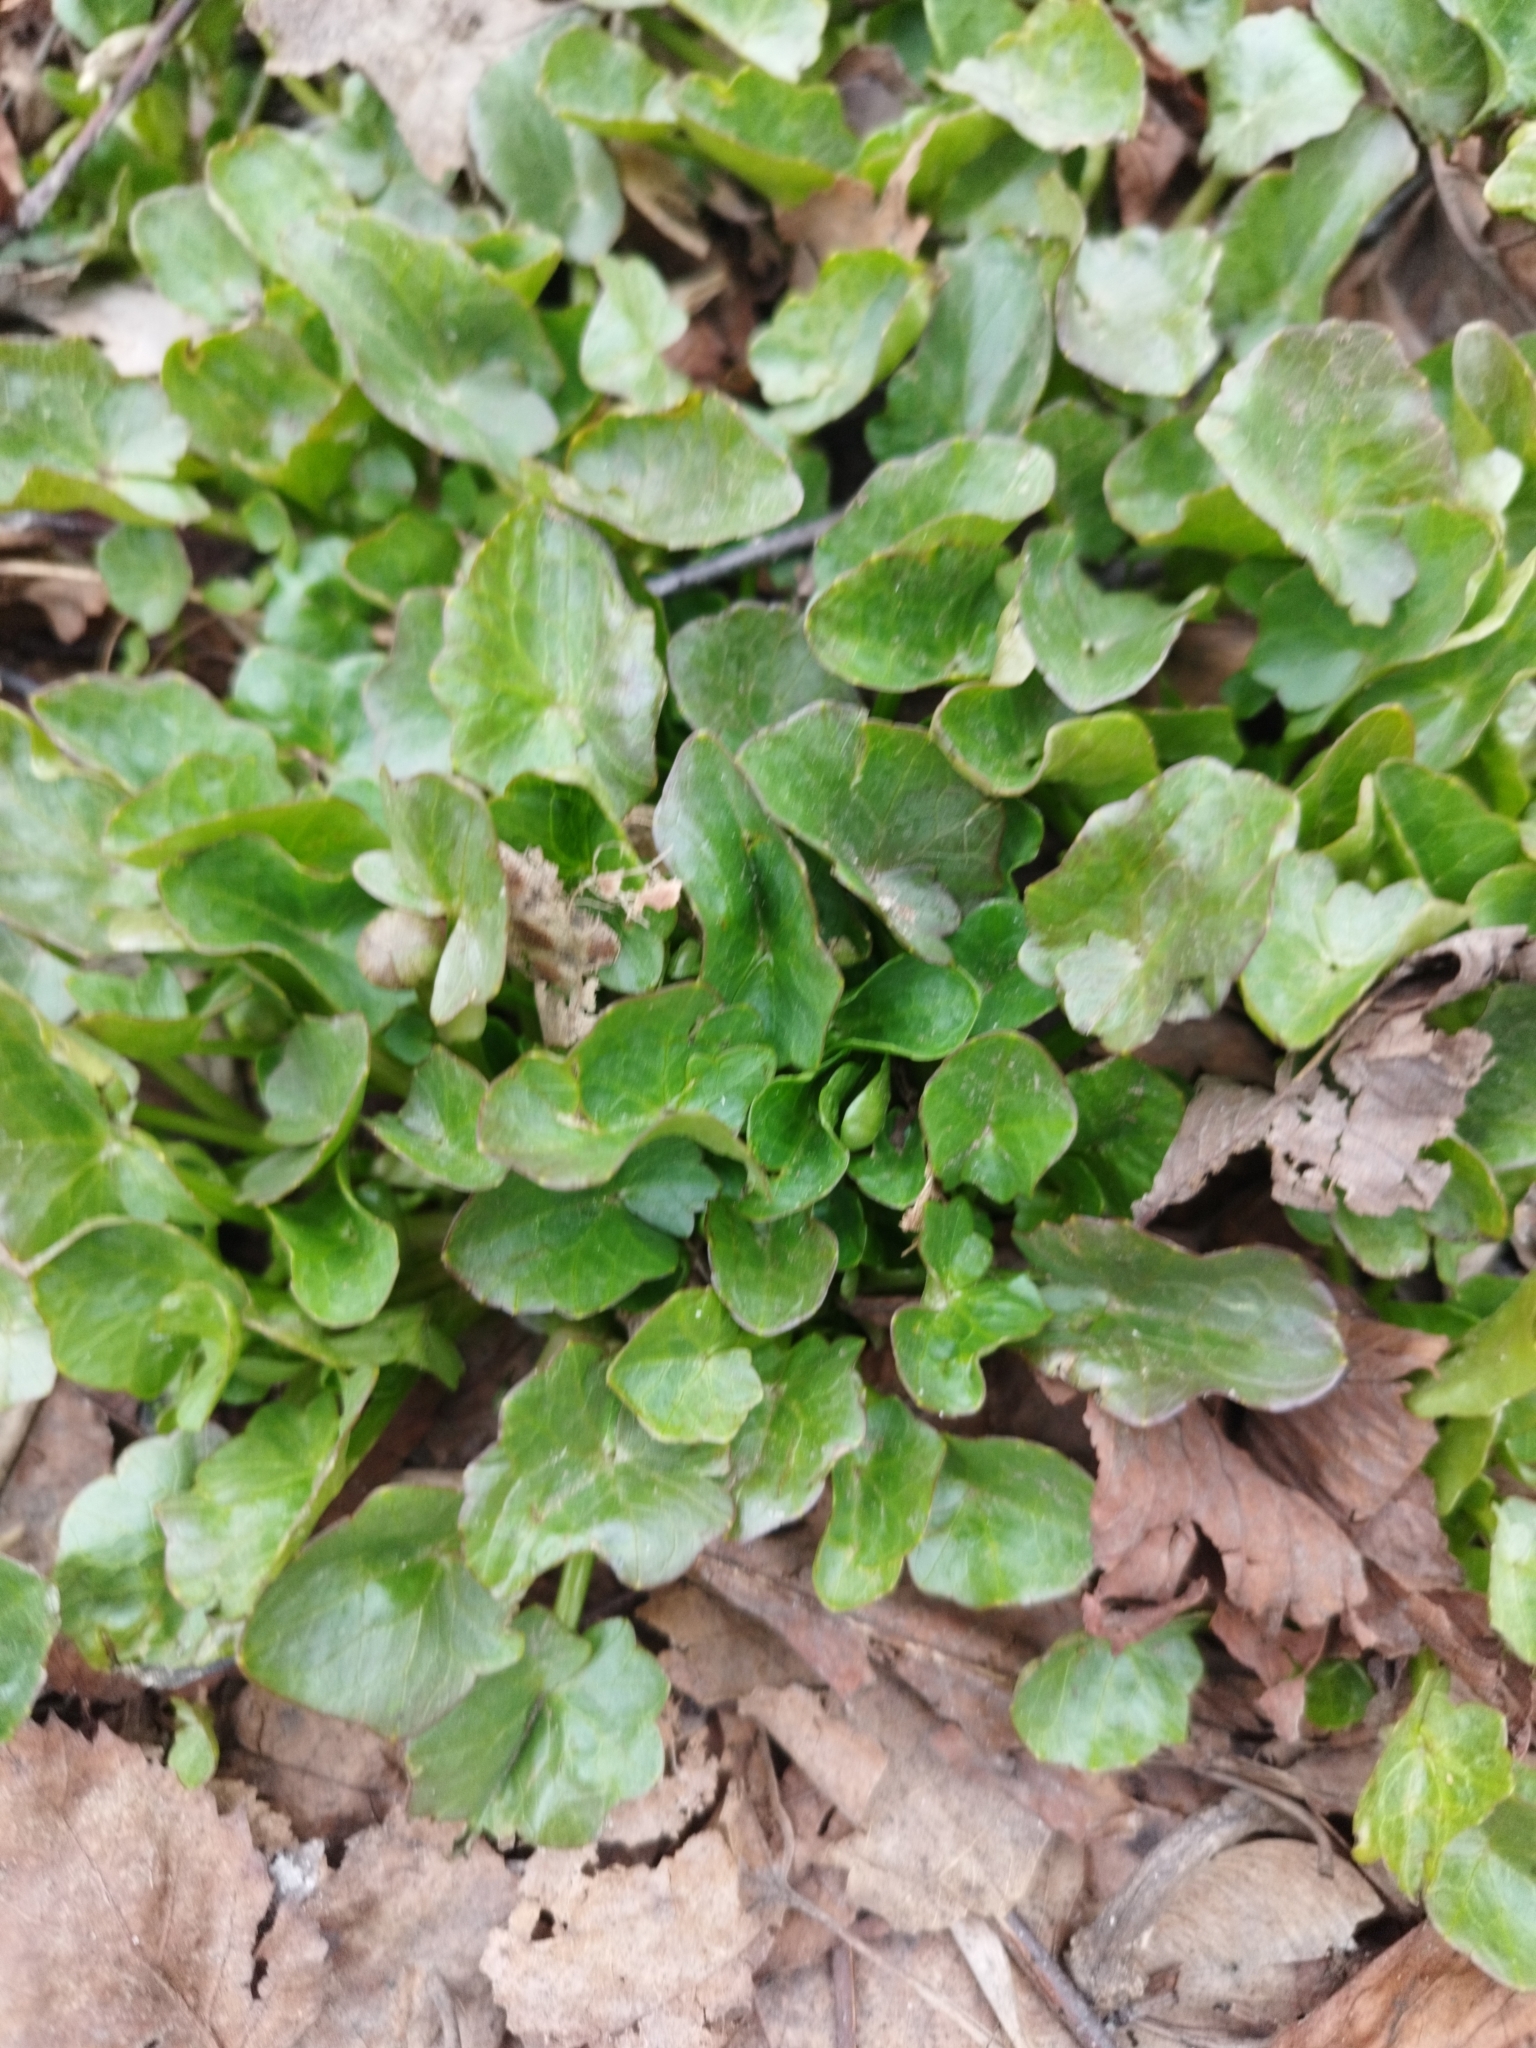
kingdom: Plantae
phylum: Tracheophyta
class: Magnoliopsida
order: Ranunculales
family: Ranunculaceae
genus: Ficaria
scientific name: Ficaria verna
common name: Lesser celandine
